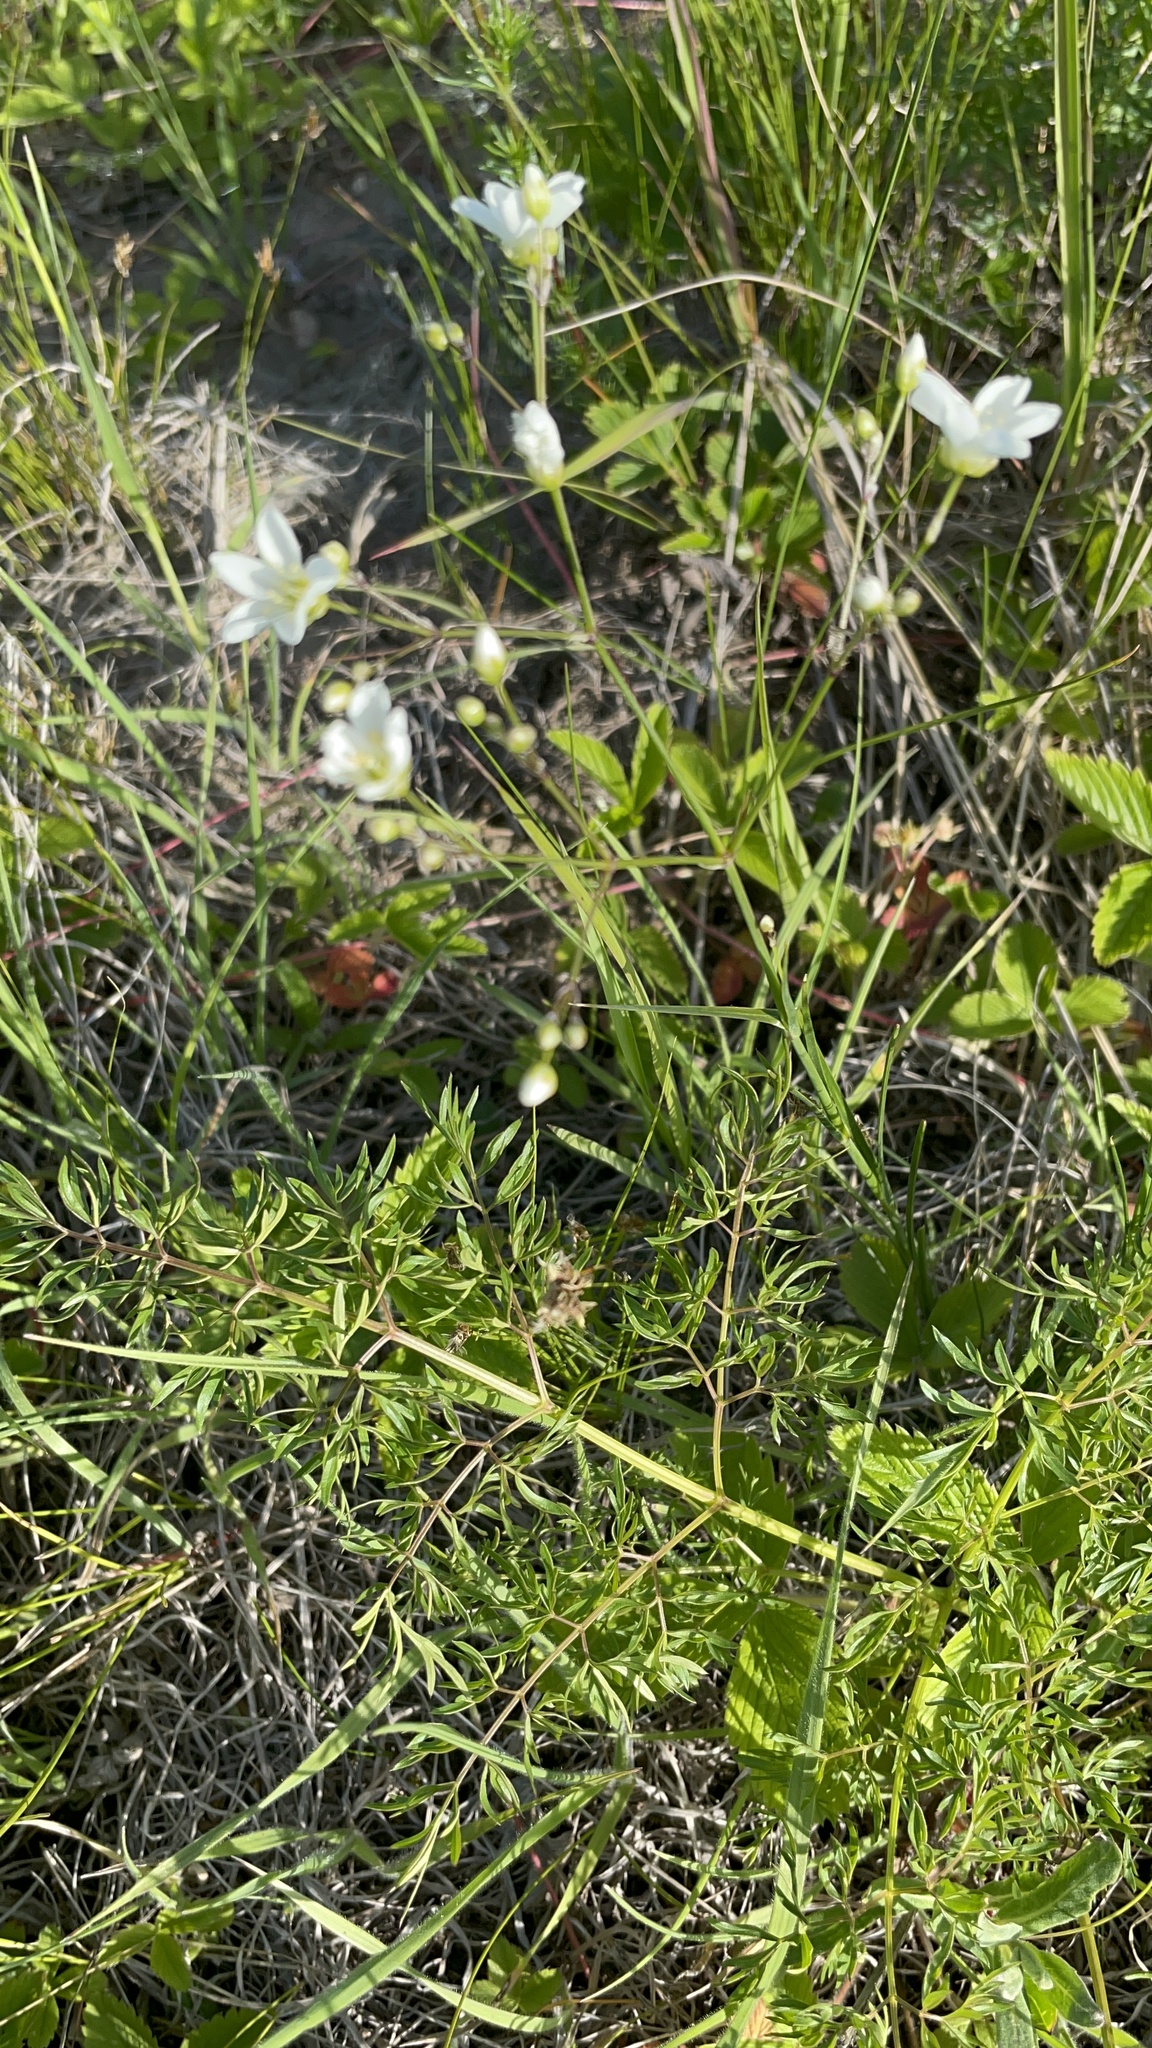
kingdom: Plantae
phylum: Tracheophyta
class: Magnoliopsida
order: Caryophyllales
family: Caryophyllaceae
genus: Eremogone
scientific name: Eremogone saxatilis
